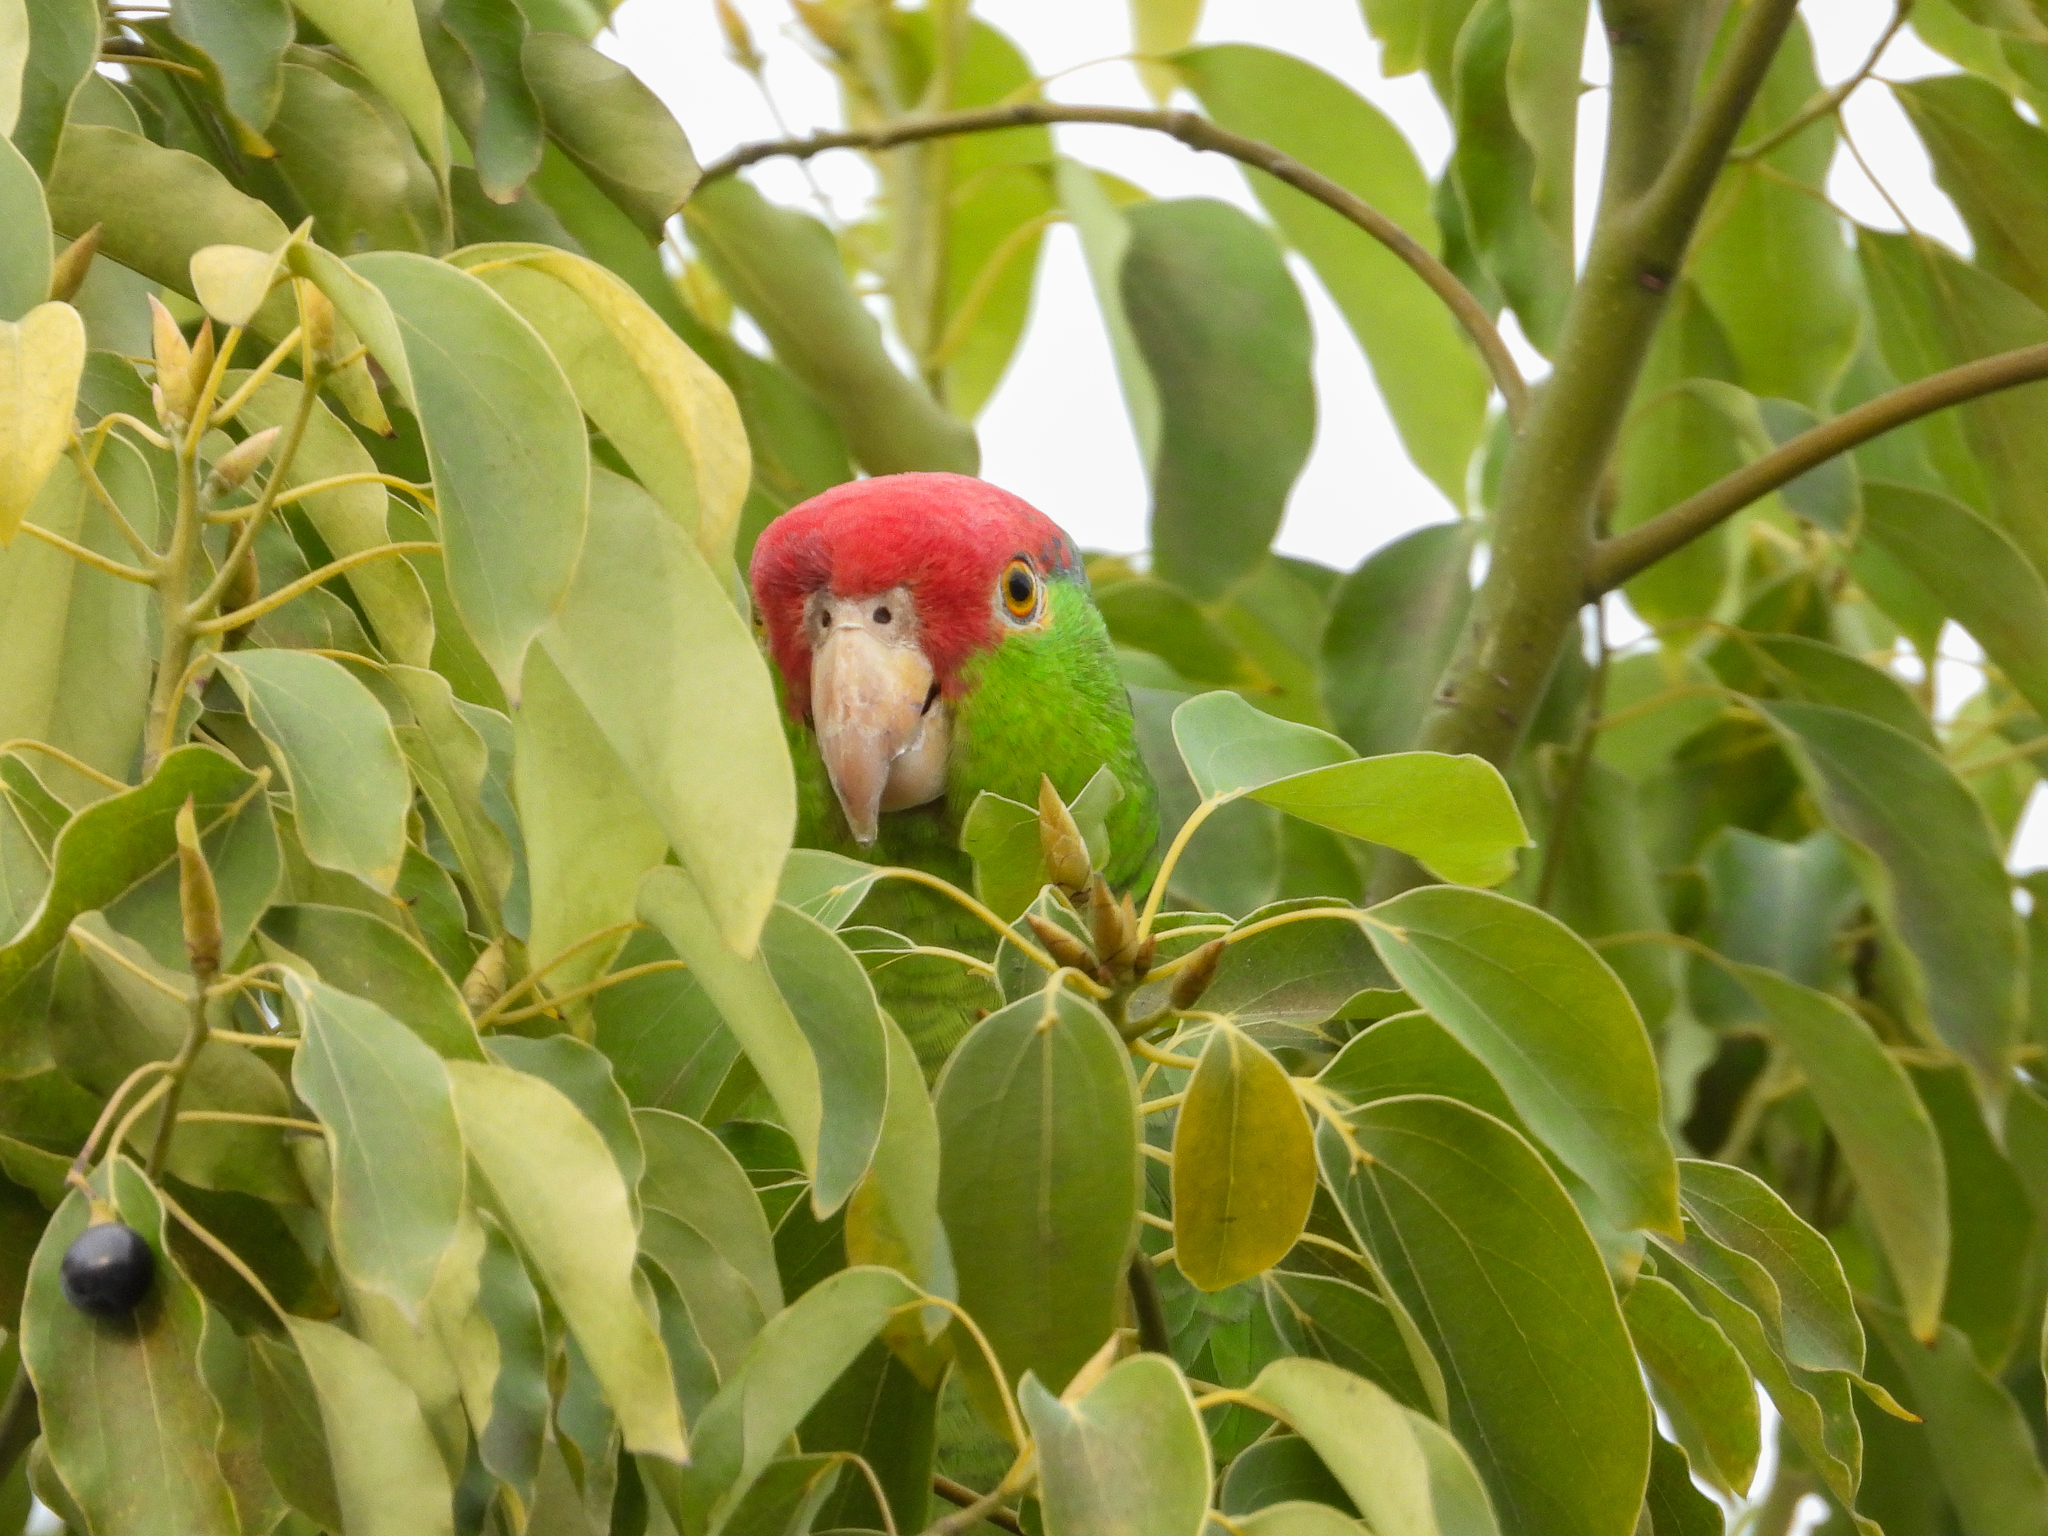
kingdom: Animalia
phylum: Chordata
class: Aves
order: Psittaciformes
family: Psittacidae
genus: Amazona
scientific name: Amazona viridigenalis
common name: Red-crowned amazon
